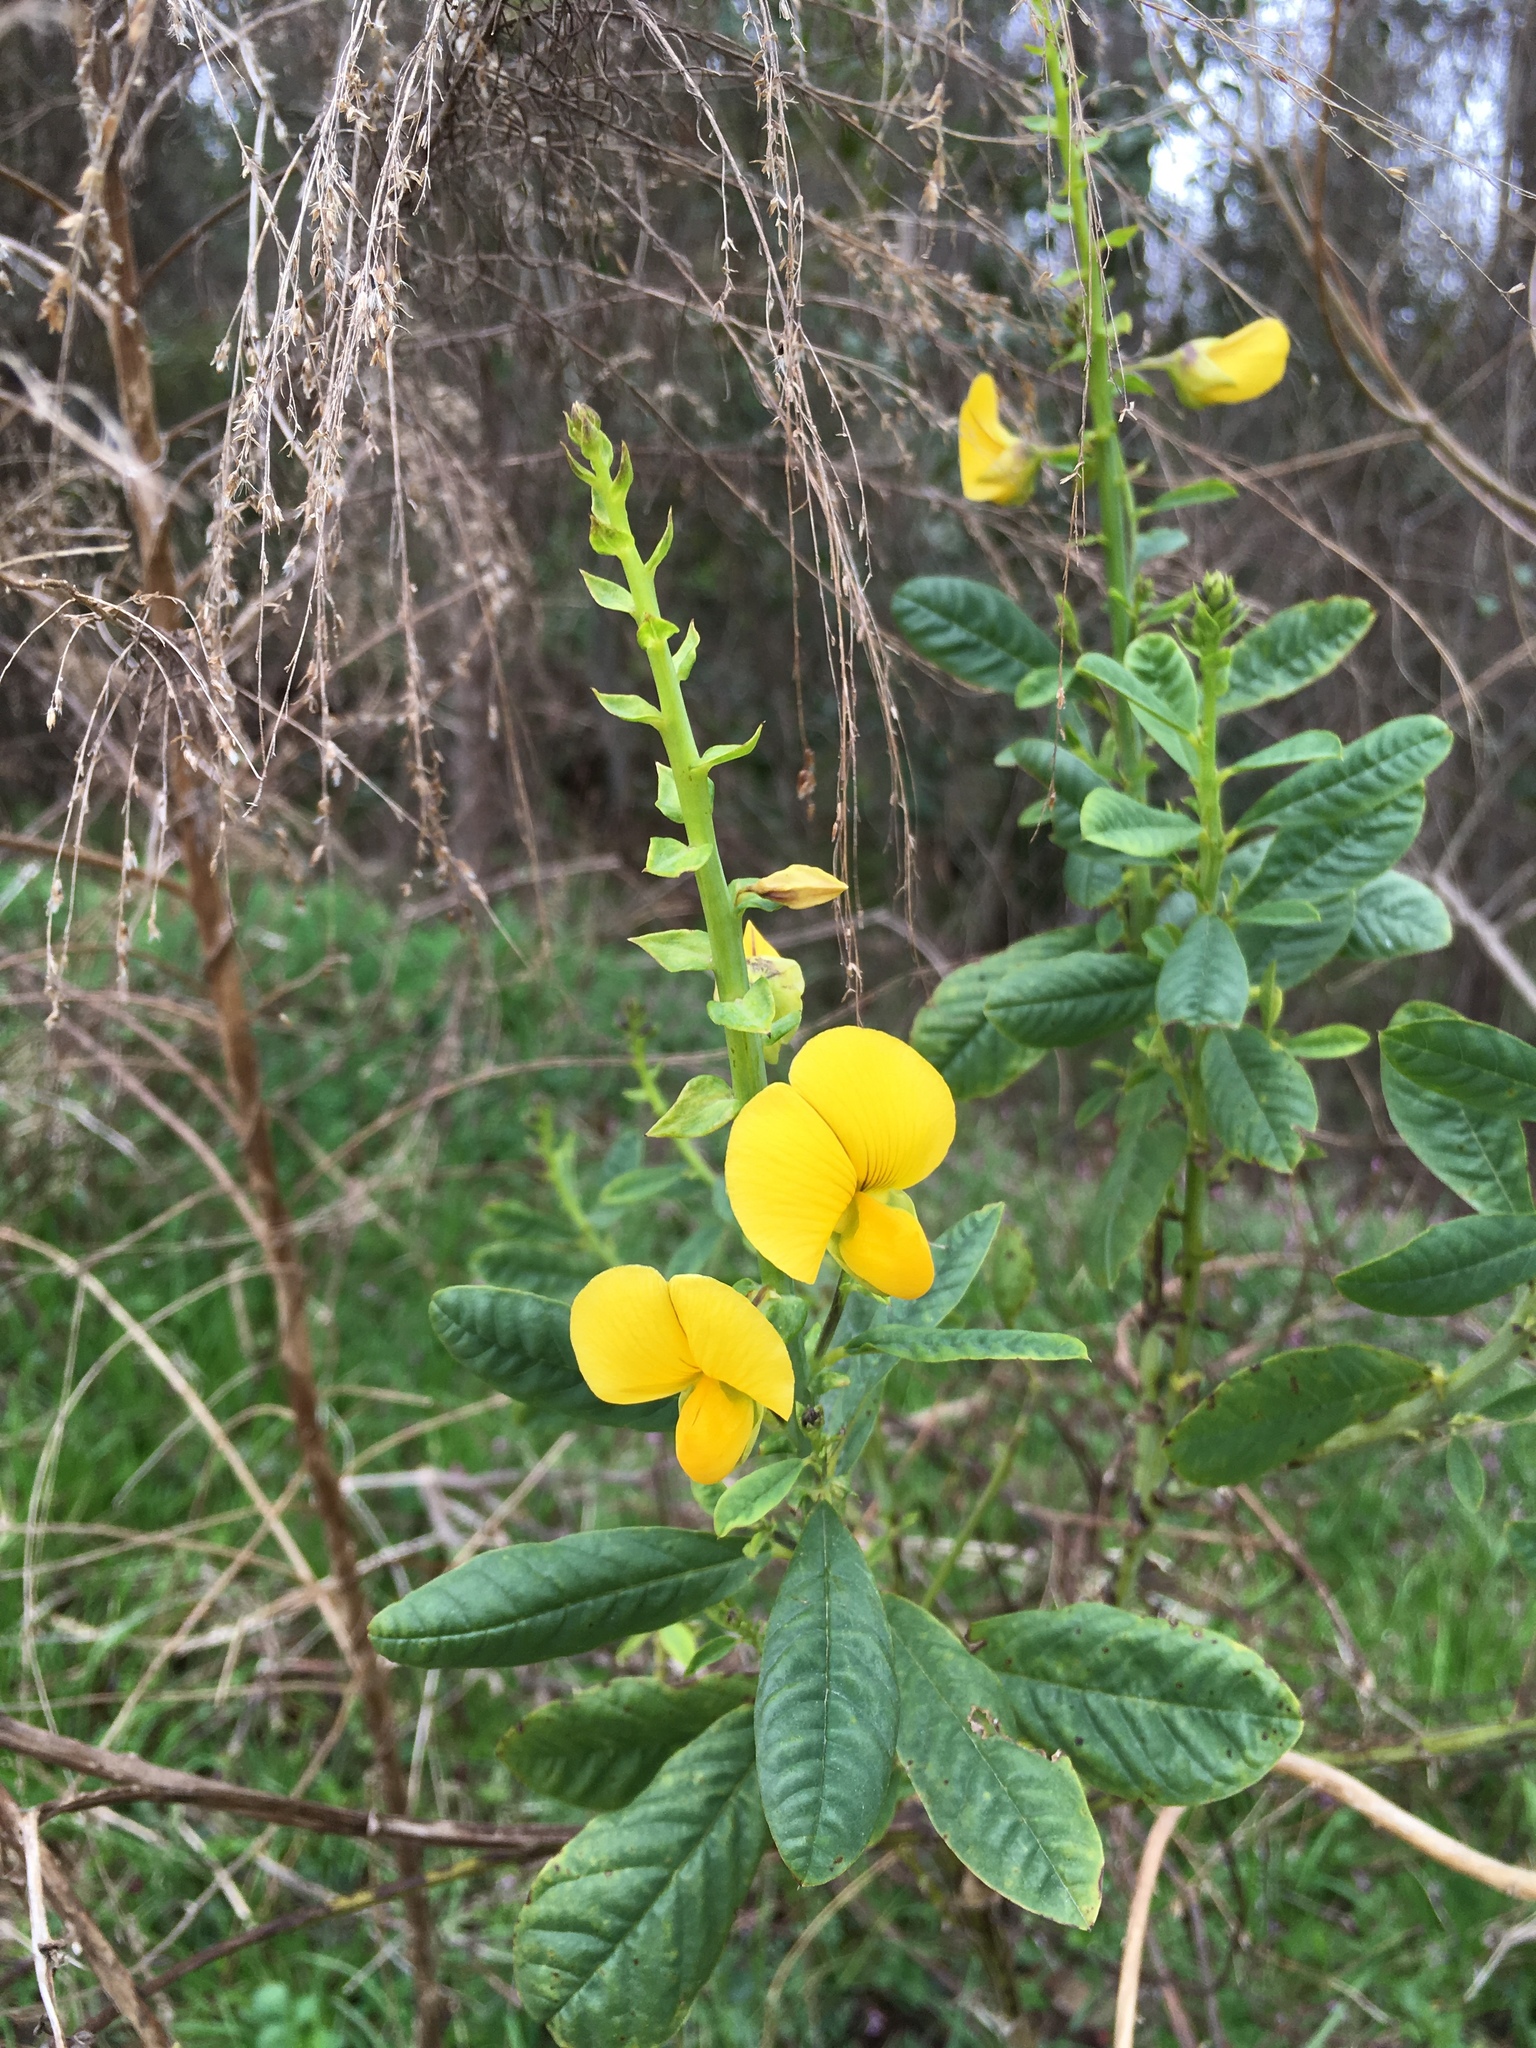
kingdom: Plantae
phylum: Tracheophyta
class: Magnoliopsida
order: Fabales
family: Fabaceae
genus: Crotalaria
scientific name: Crotalaria spectabilis
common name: Showy rattlebox
